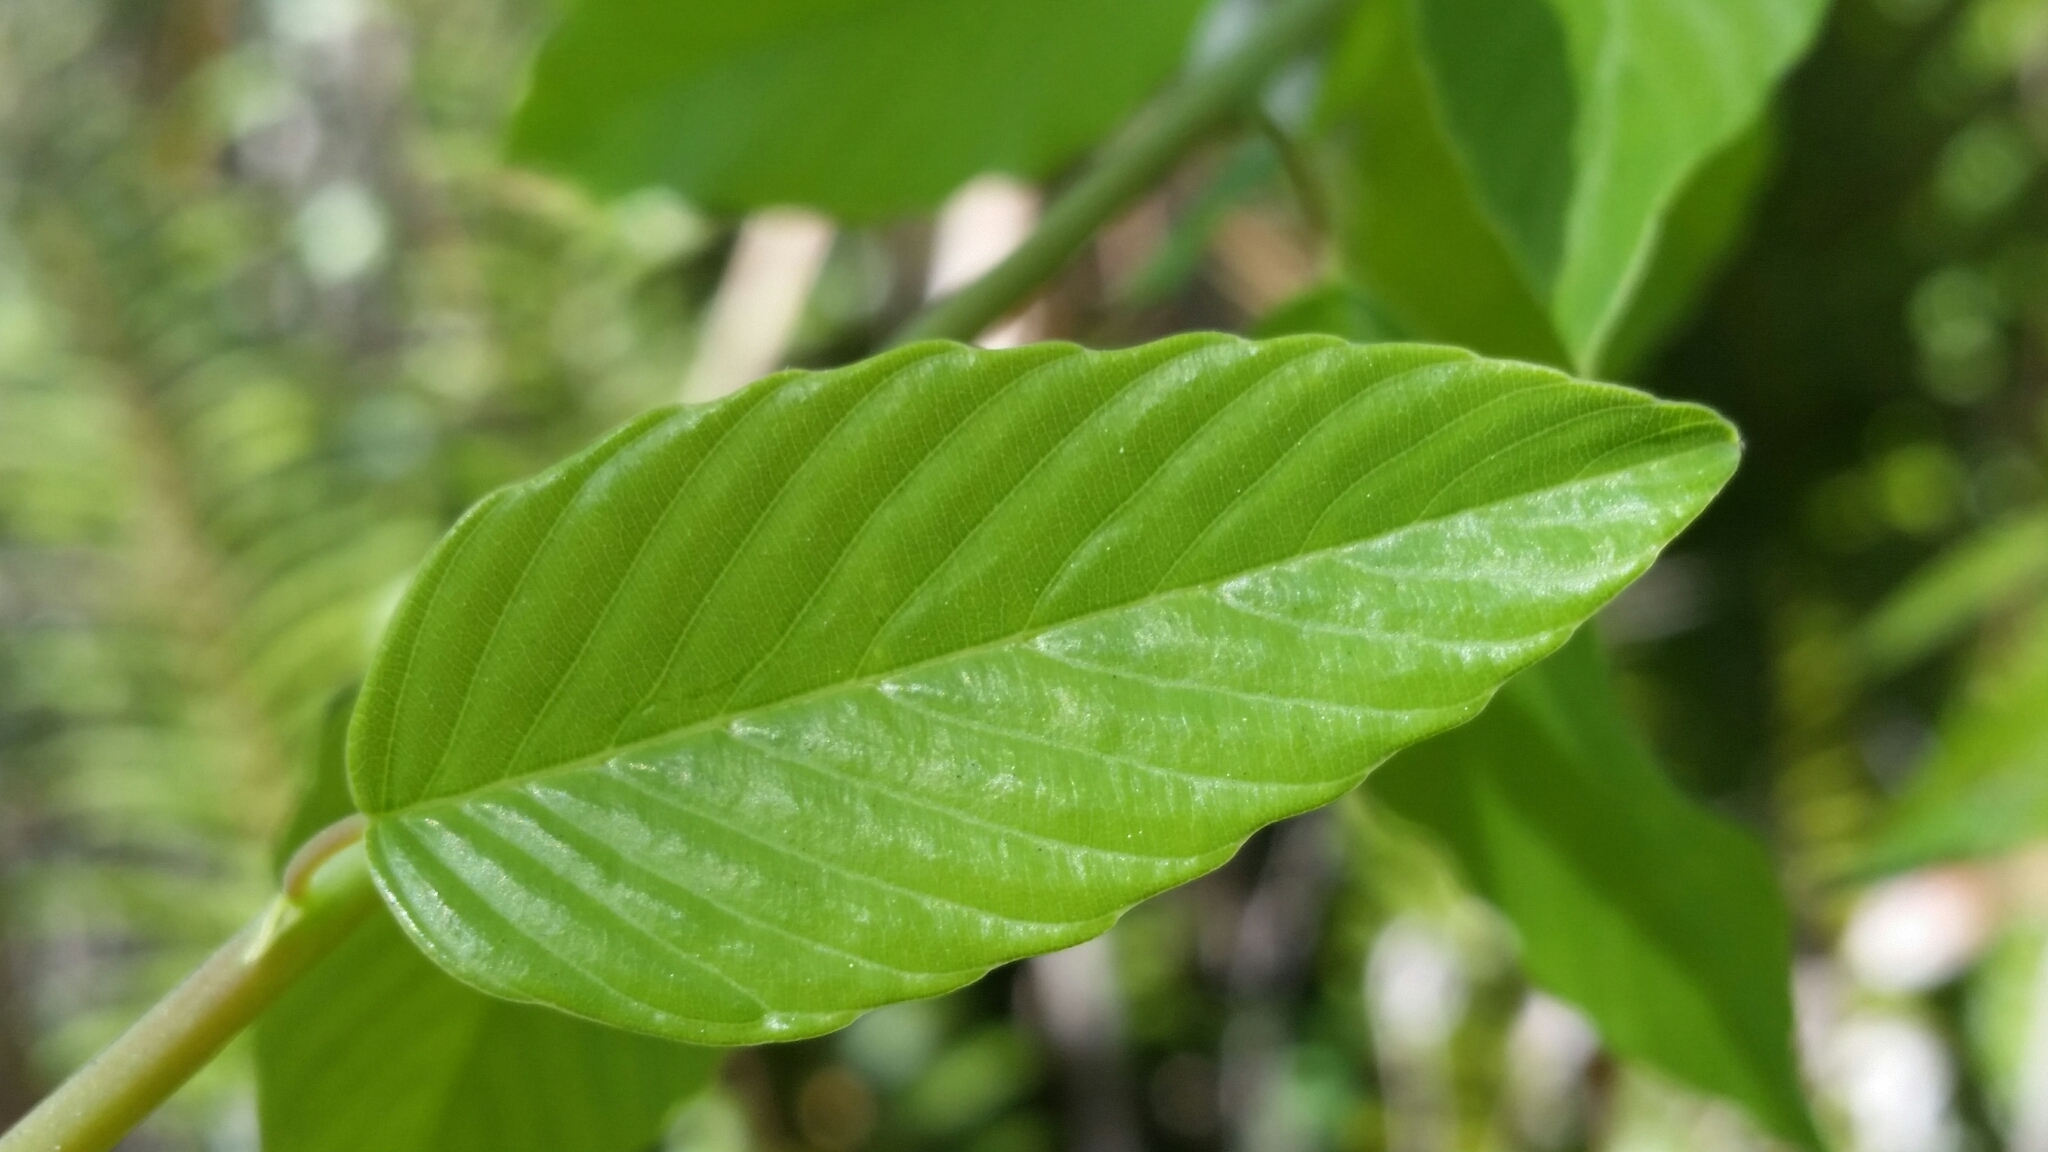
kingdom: Plantae
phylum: Tracheophyta
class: Magnoliopsida
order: Rosales
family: Rhamnaceae
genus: Berchemia
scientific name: Berchemia scandens
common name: Supplejack
